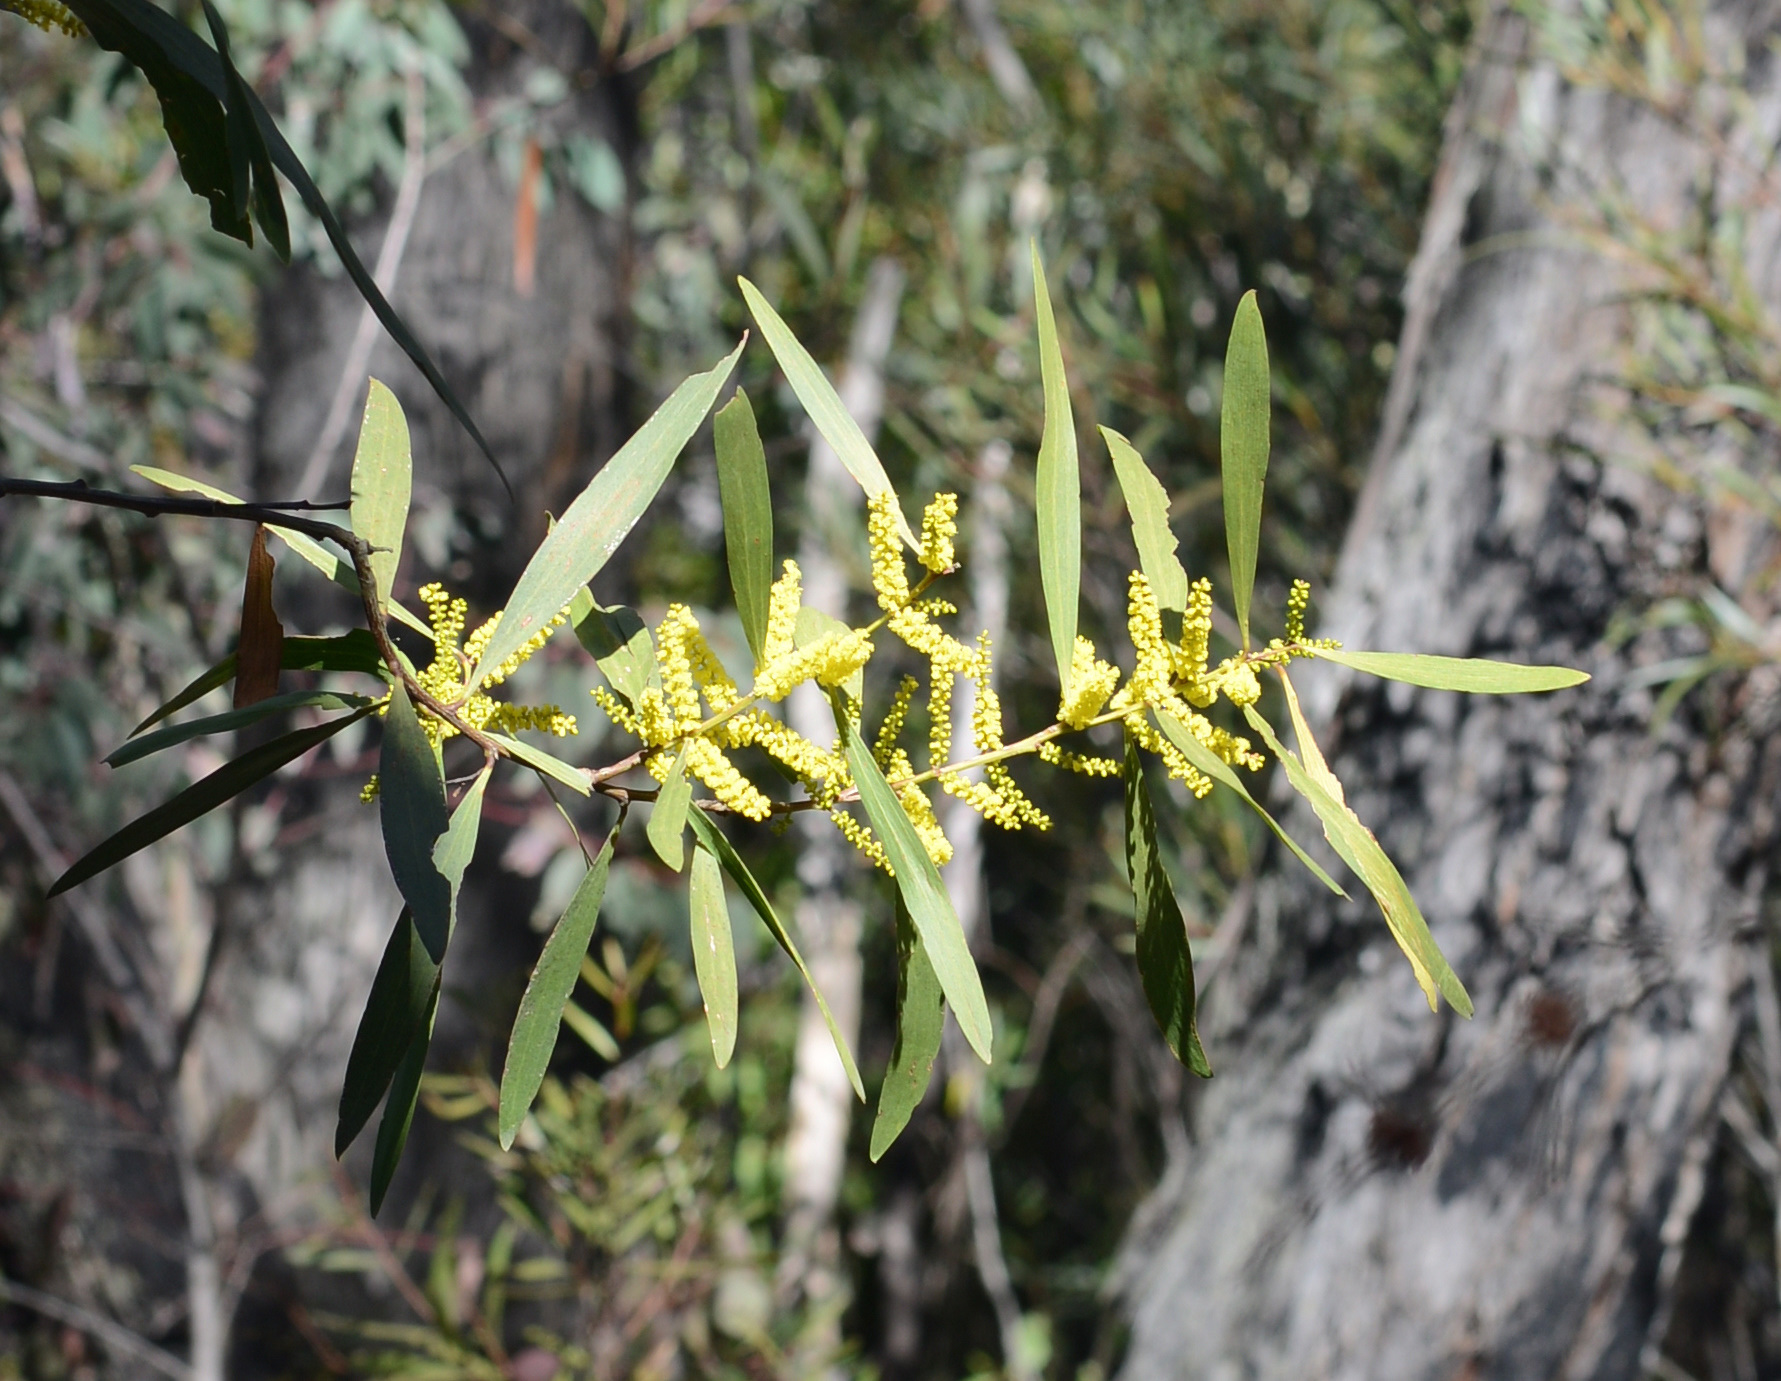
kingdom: Plantae
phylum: Tracheophyta
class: Magnoliopsida
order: Fabales
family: Fabaceae
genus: Acacia
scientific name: Acacia longifolia
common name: Sydney golden wattle
